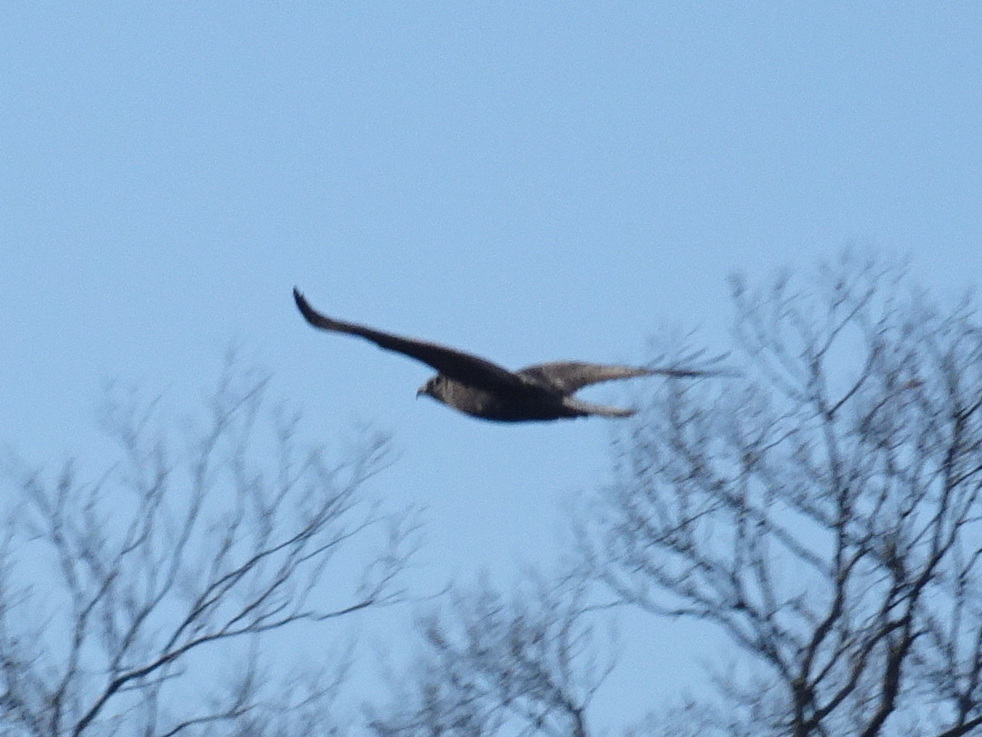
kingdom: Animalia
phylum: Chordata
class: Aves
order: Accipitriformes
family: Accipitridae
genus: Buteo
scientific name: Buteo jamaicensis
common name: Red-tailed hawk
